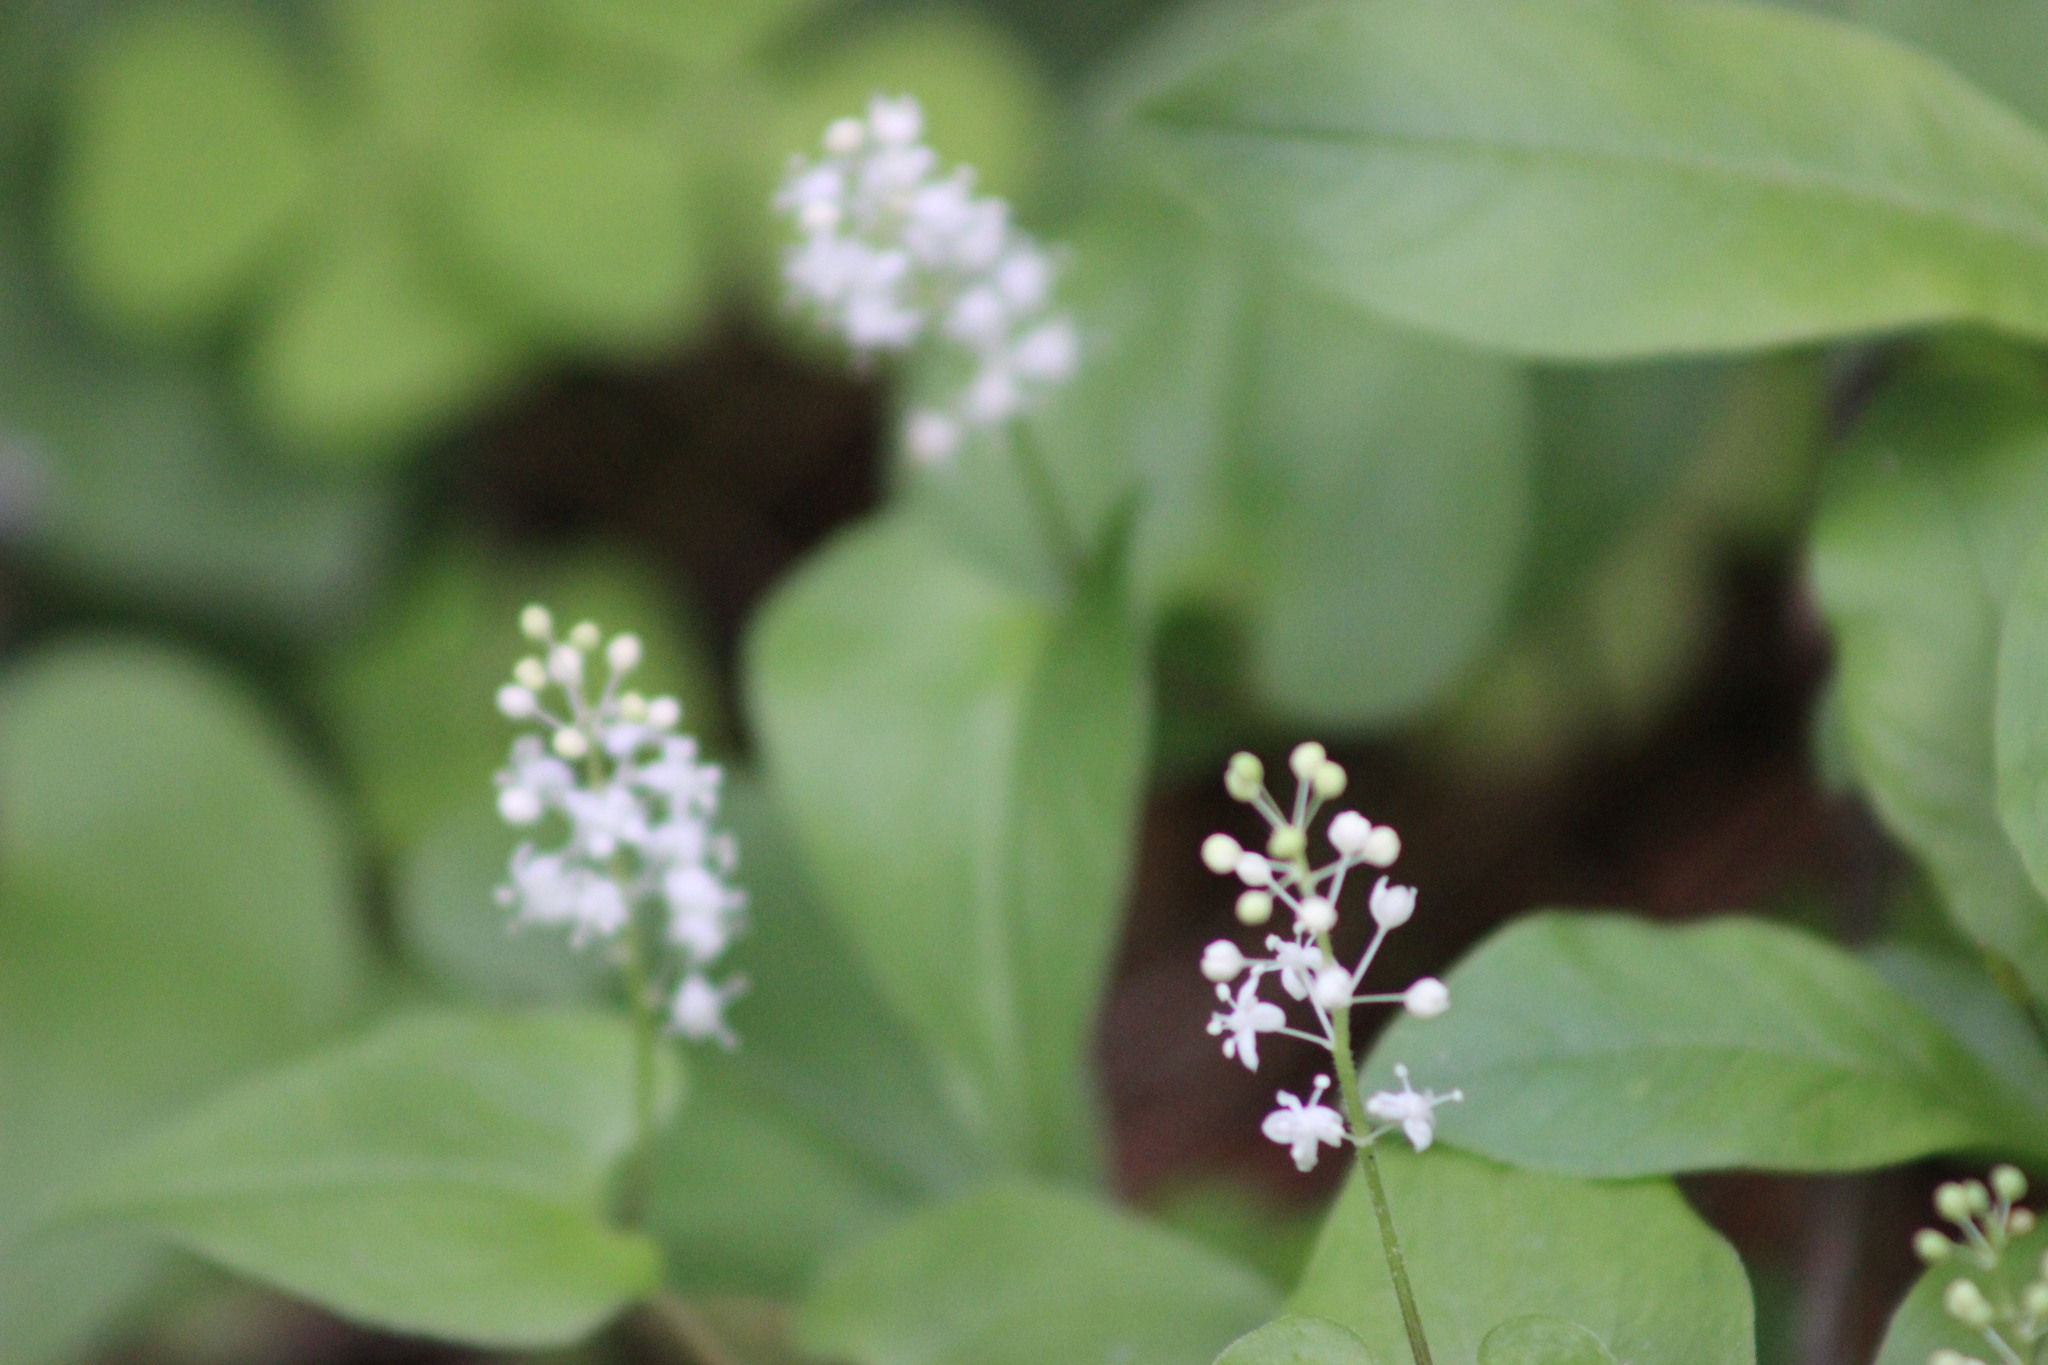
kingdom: Plantae
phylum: Tracheophyta
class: Liliopsida
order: Asparagales
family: Asparagaceae
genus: Maianthemum
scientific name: Maianthemum bifolium
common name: May lily
